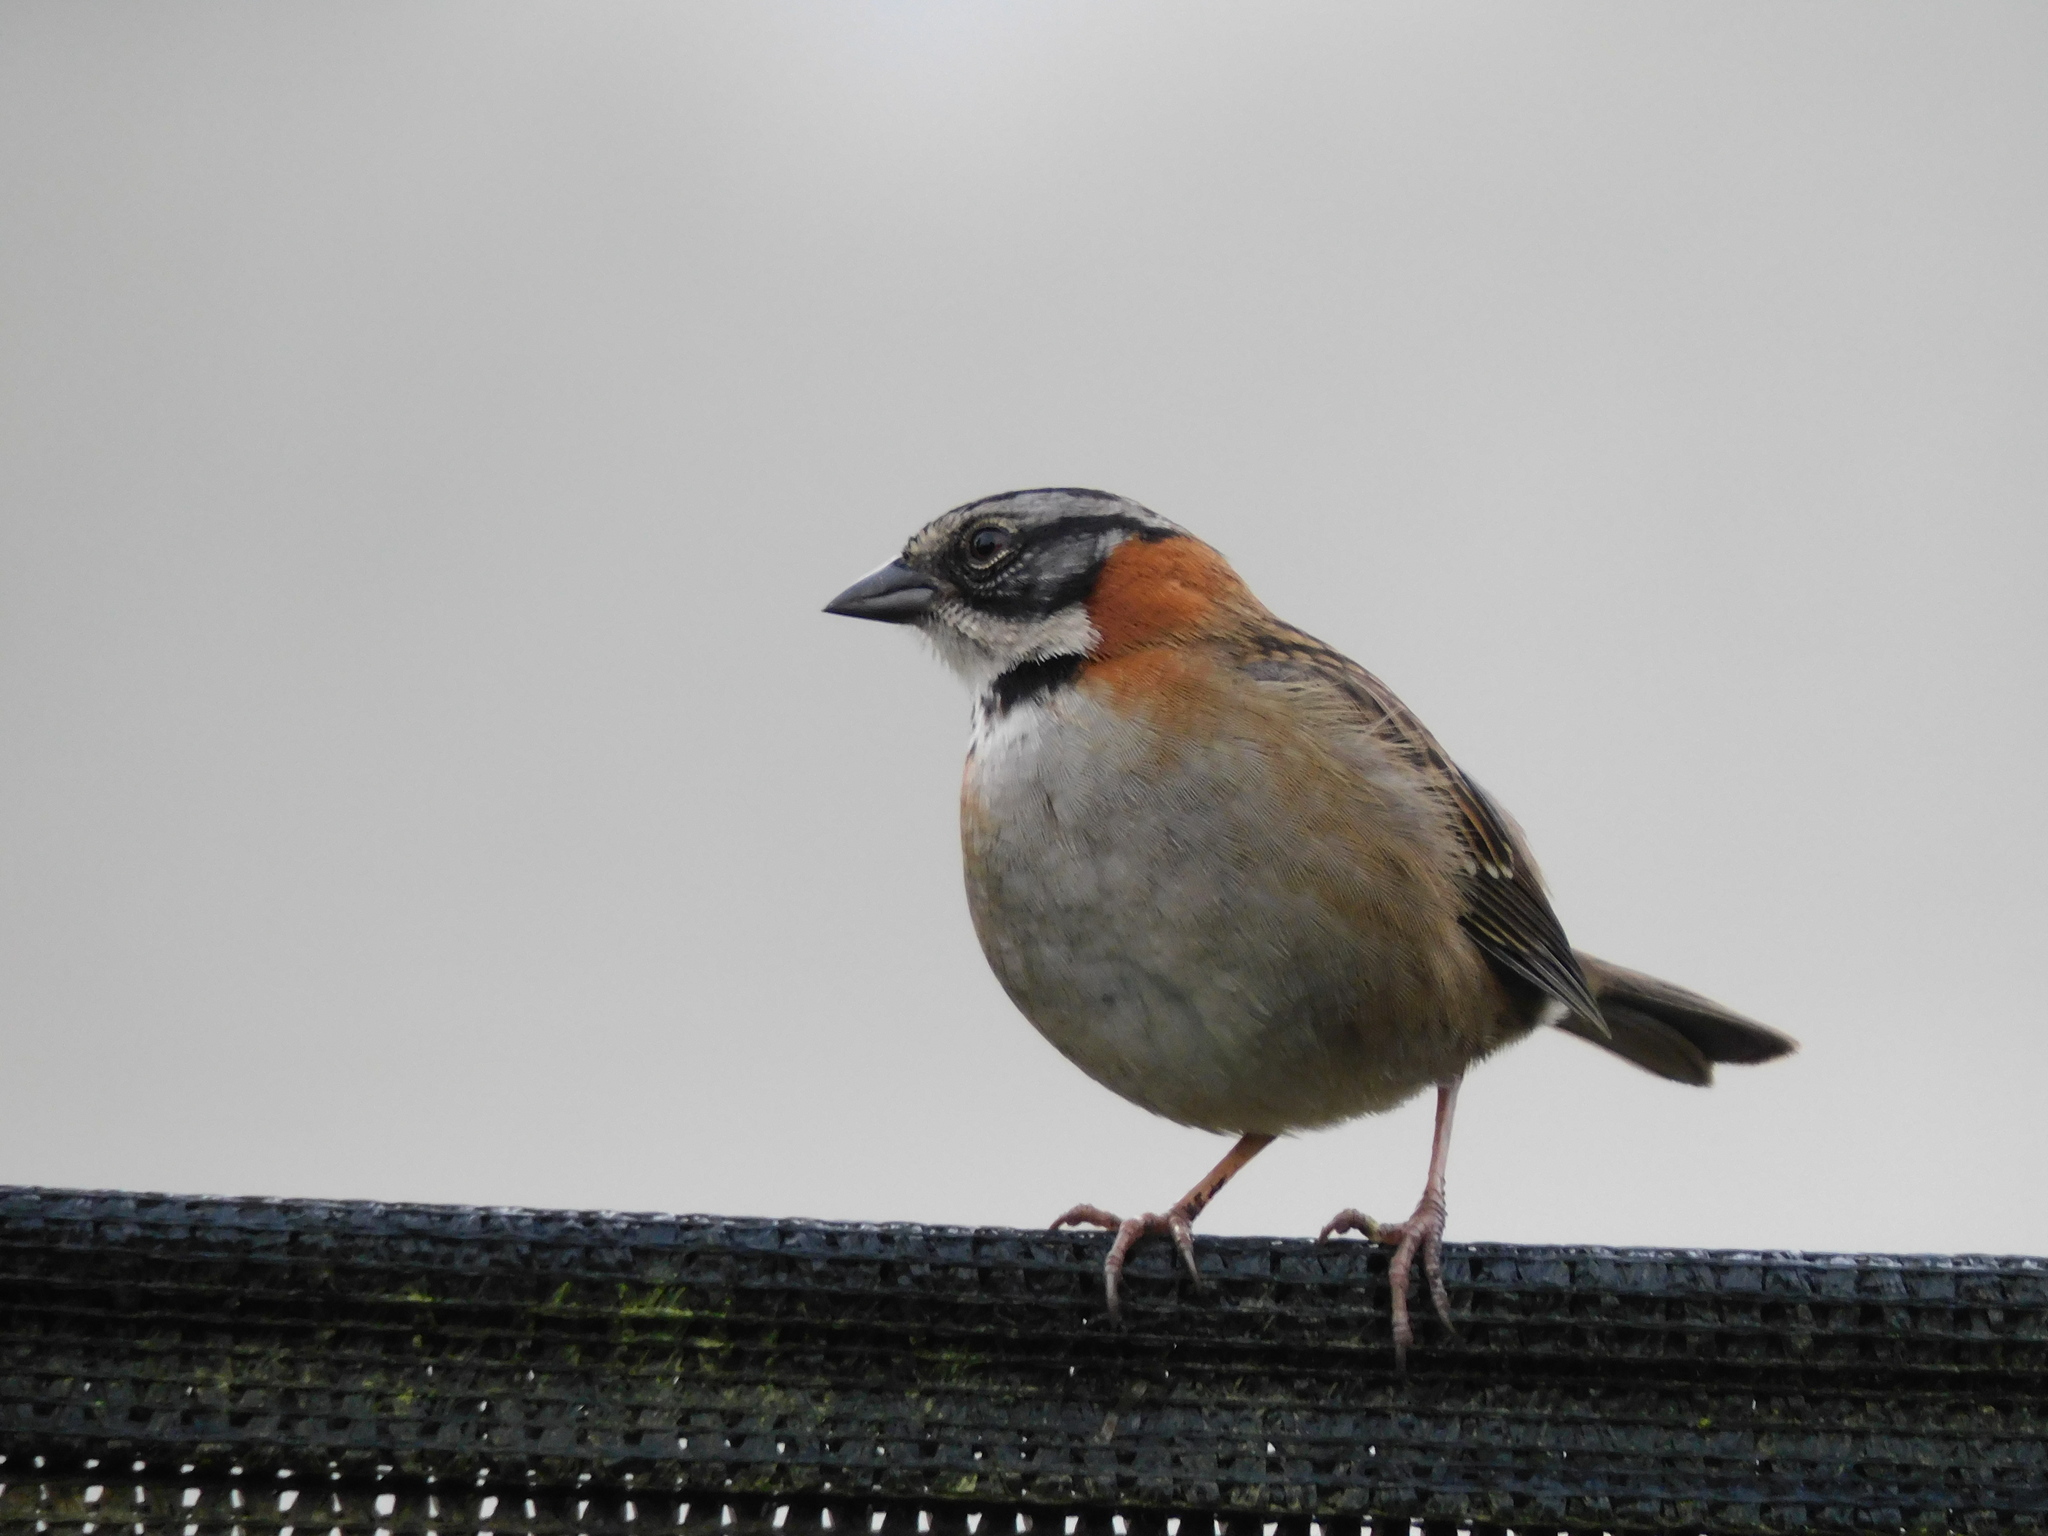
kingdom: Animalia
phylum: Chordata
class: Aves
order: Passeriformes
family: Passerellidae
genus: Zonotrichia
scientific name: Zonotrichia capensis
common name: Rufous-collared sparrow
